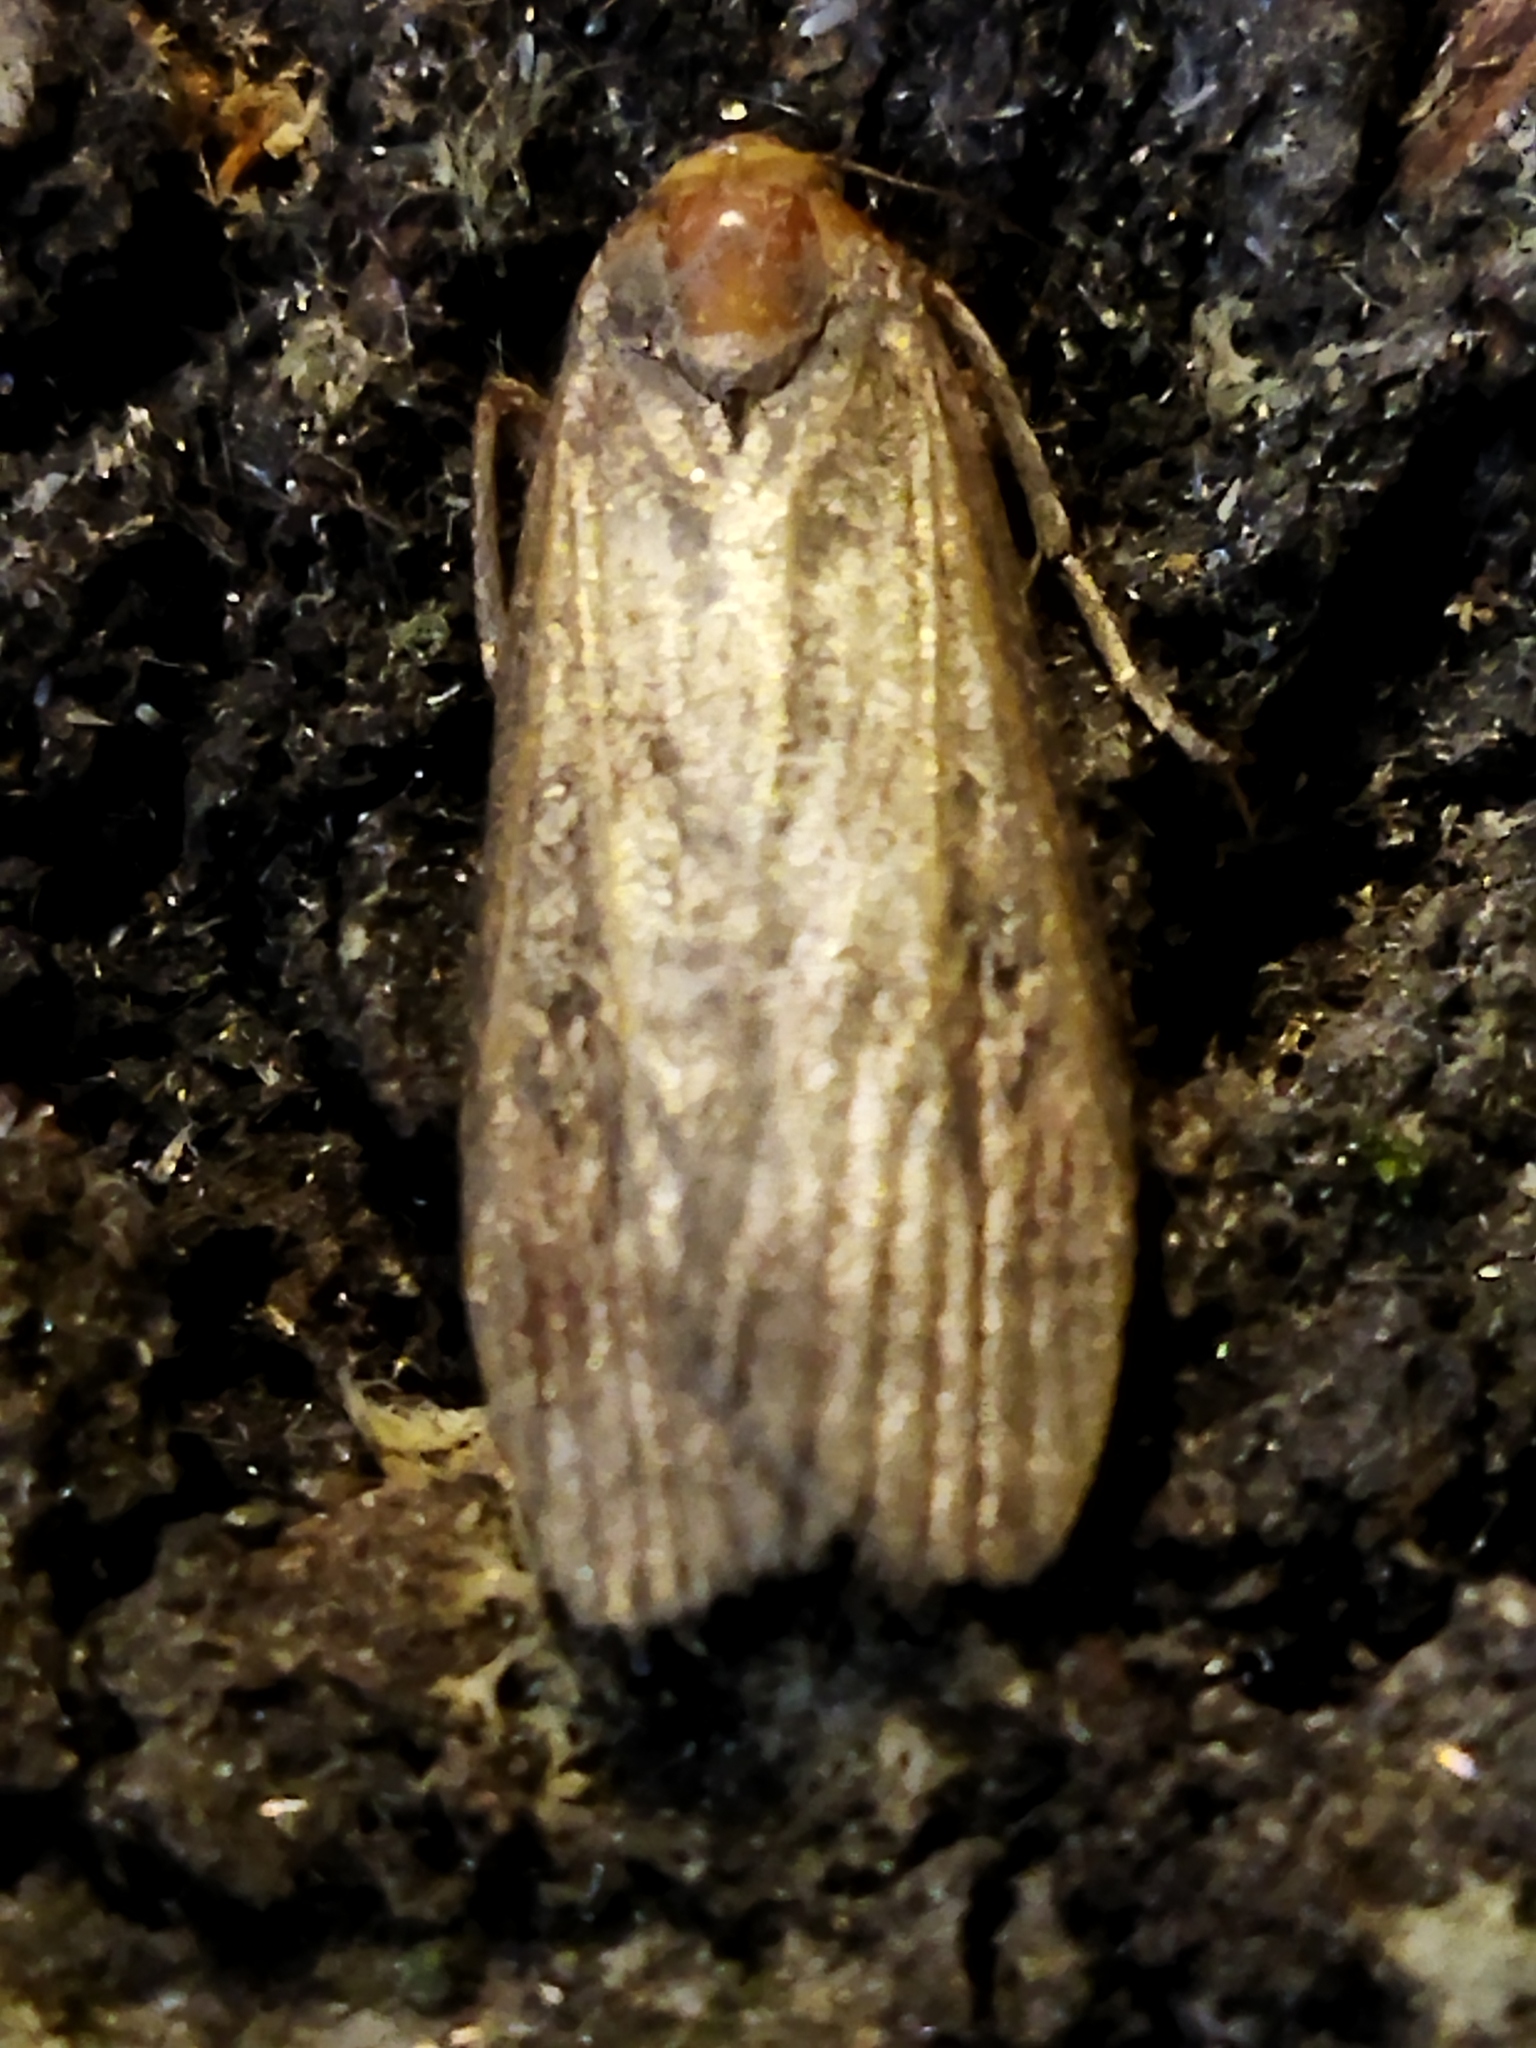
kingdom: Animalia
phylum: Arthropoda
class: Insecta
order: Lepidoptera
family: Pyralidae
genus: Lamoria
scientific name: Lamoria anella
